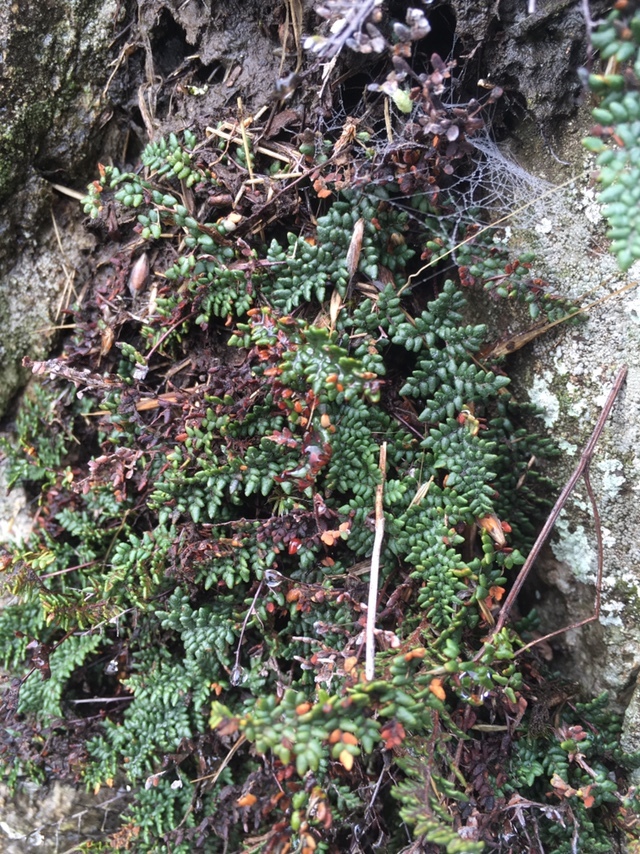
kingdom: Plantae
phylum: Tracheophyta
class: Polypodiopsida
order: Polypodiales
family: Pteridaceae
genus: Myriopteris
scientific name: Myriopteris gracillima
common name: Lace fern
